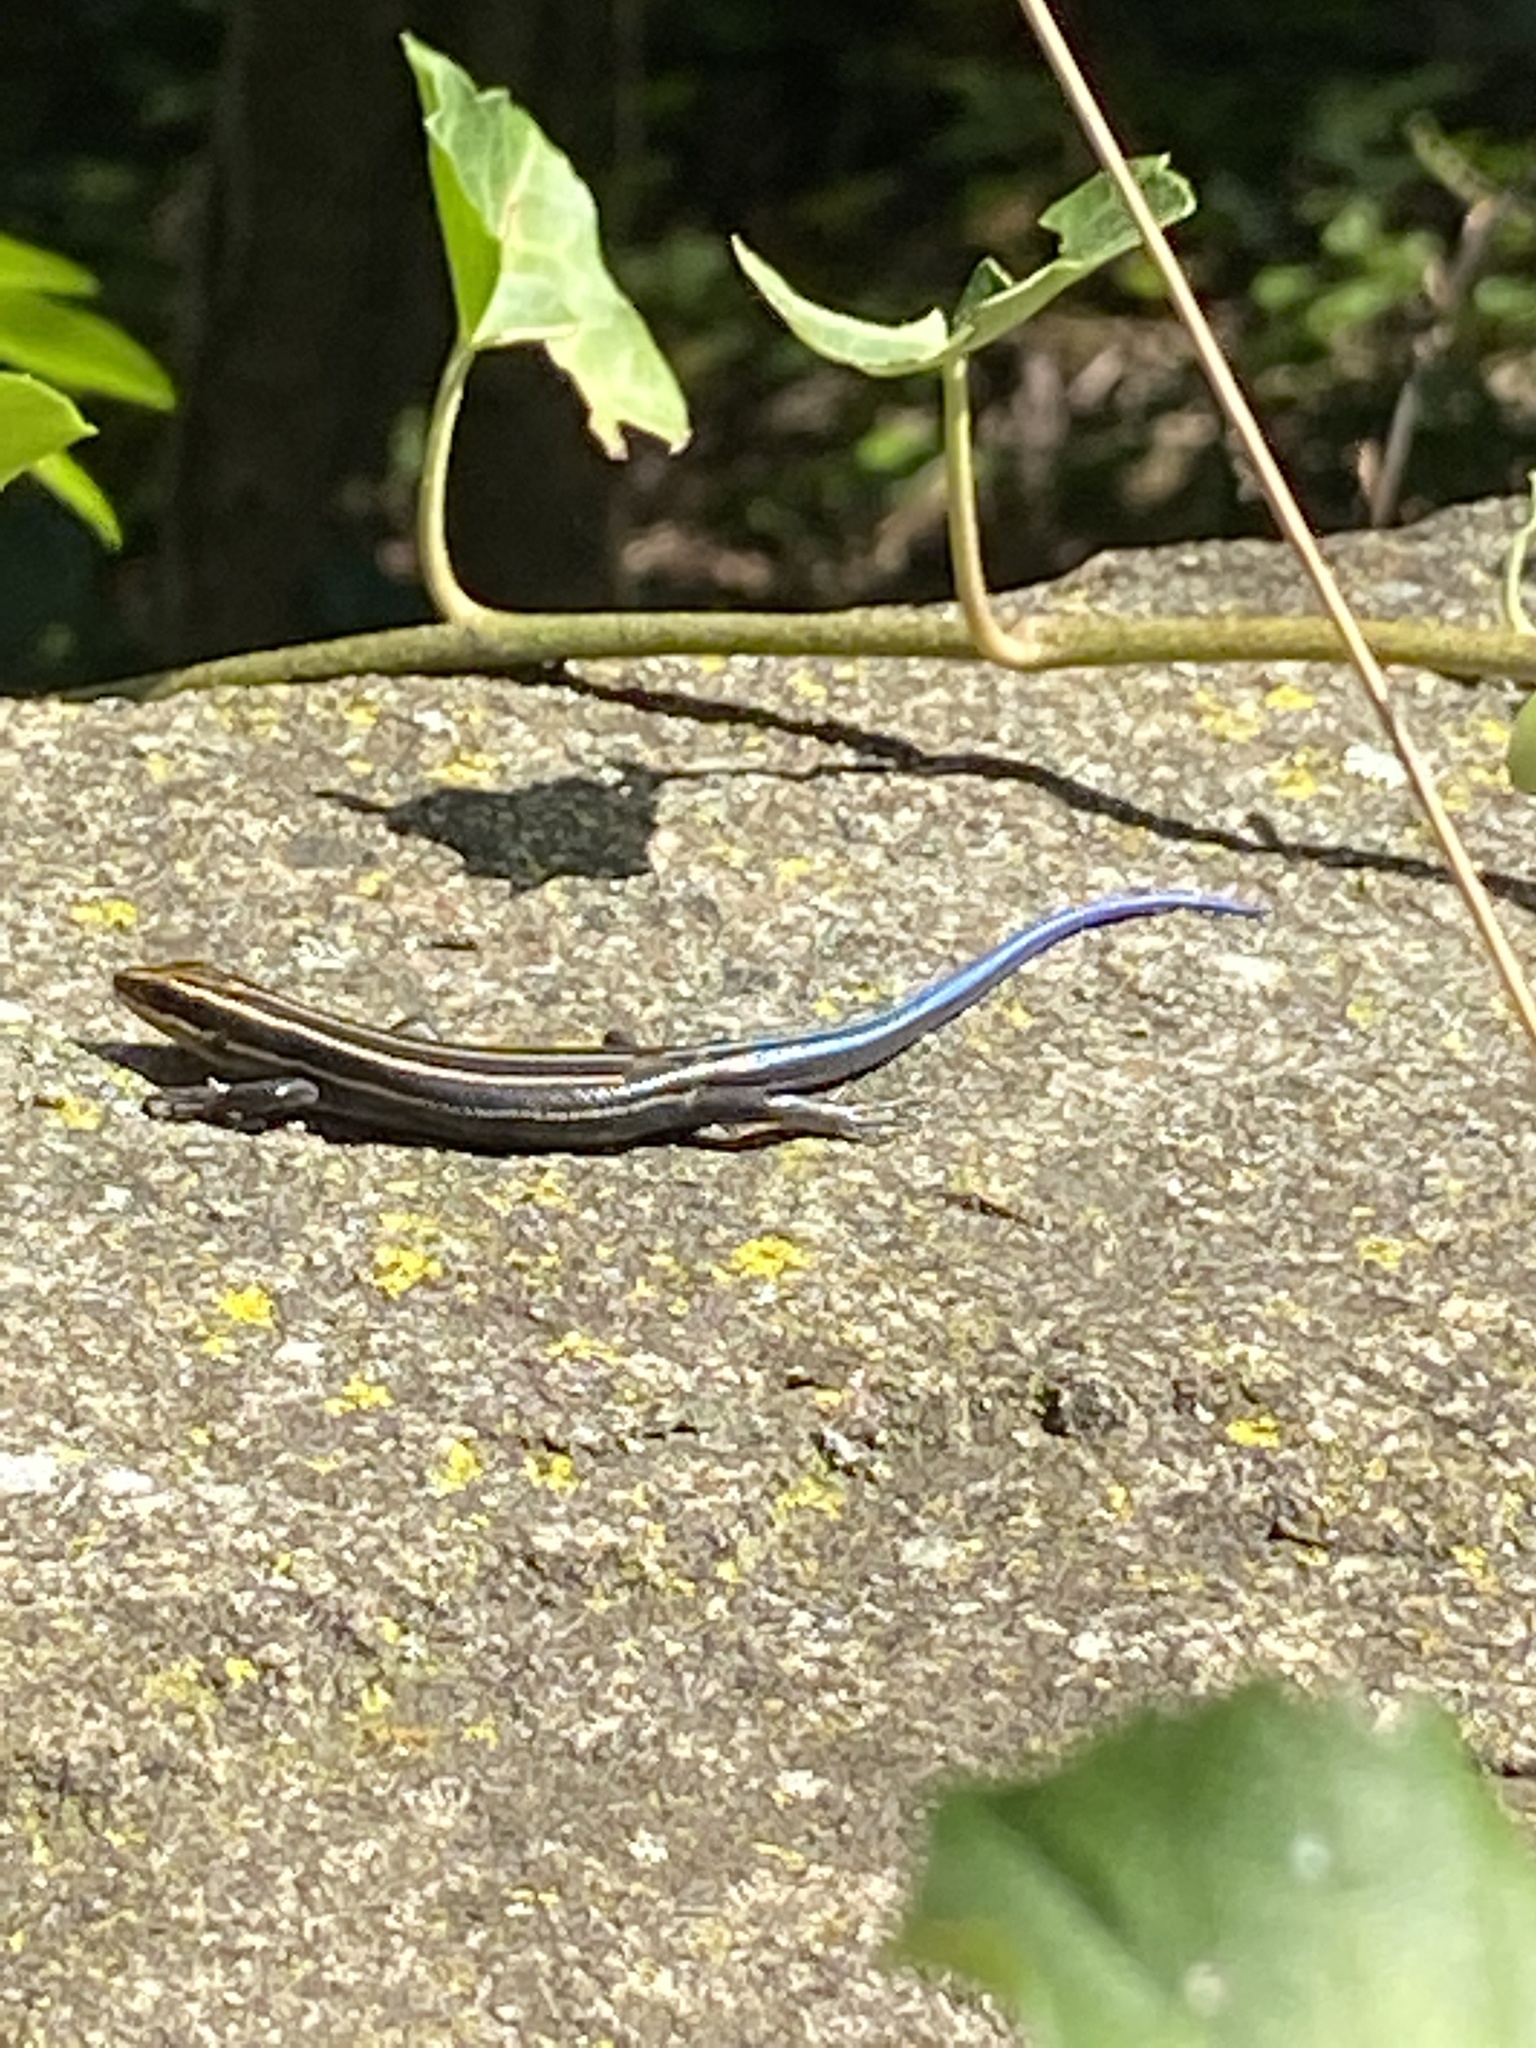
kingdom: Animalia
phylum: Chordata
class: Squamata
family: Scincidae
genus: Plestiodon
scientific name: Plestiodon fasciatus
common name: Five-lined skink
